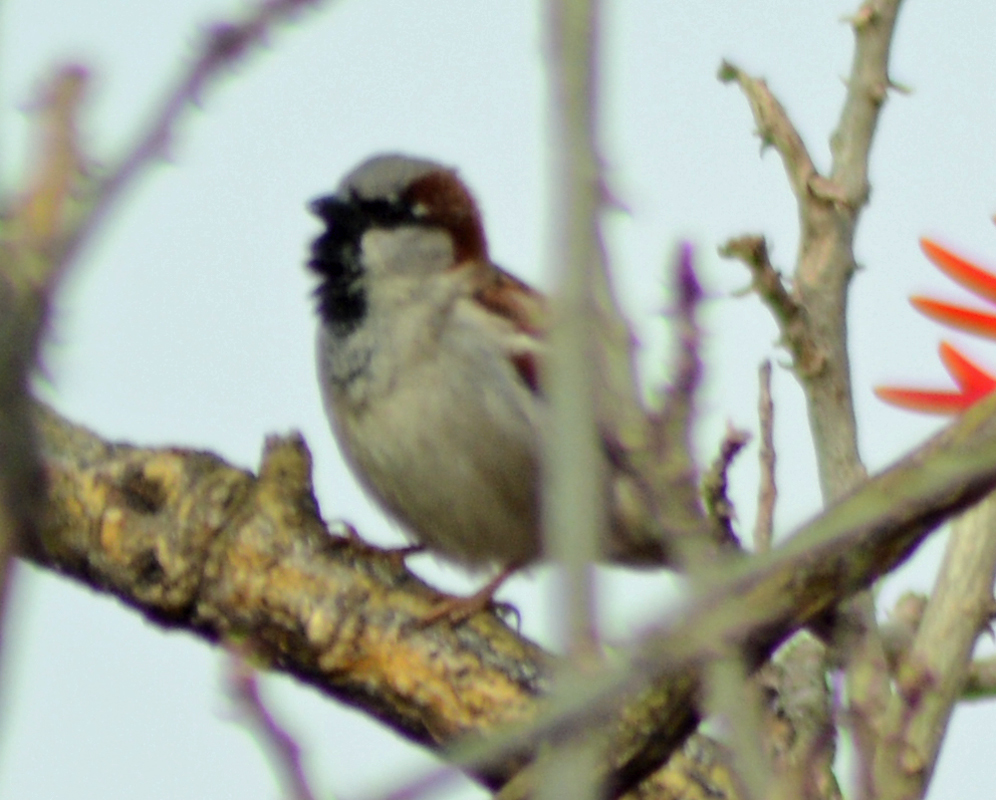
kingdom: Animalia
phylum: Chordata
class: Aves
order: Passeriformes
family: Passeridae
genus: Passer
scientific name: Passer domesticus
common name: House sparrow
